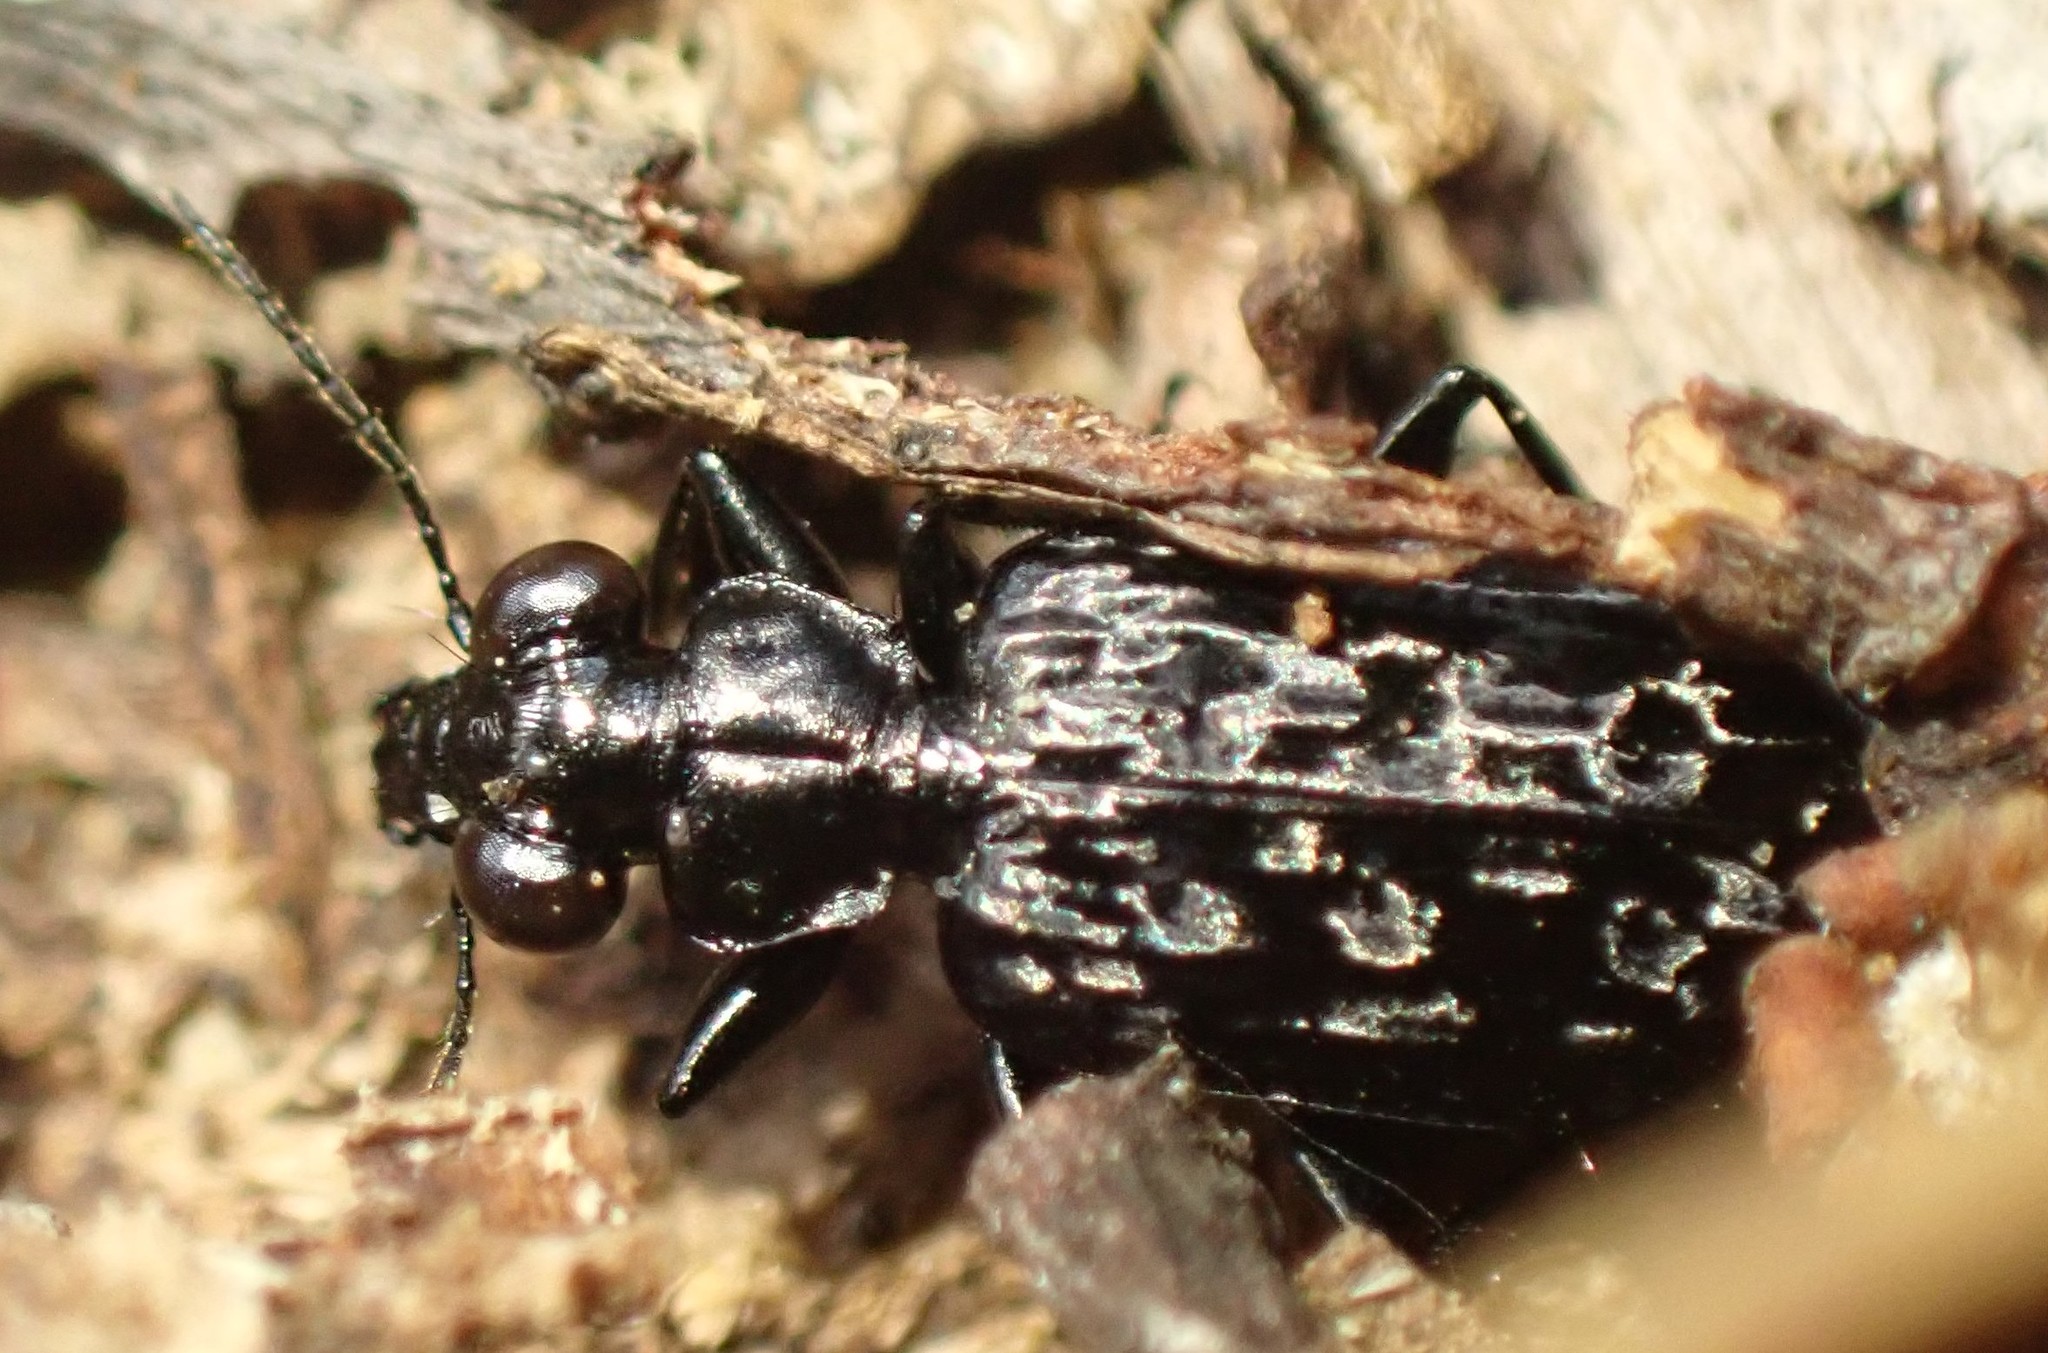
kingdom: Animalia
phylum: Arthropoda
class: Insecta
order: Coleoptera
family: Carabidae
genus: Scopodes
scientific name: Scopodes tasmanicus
